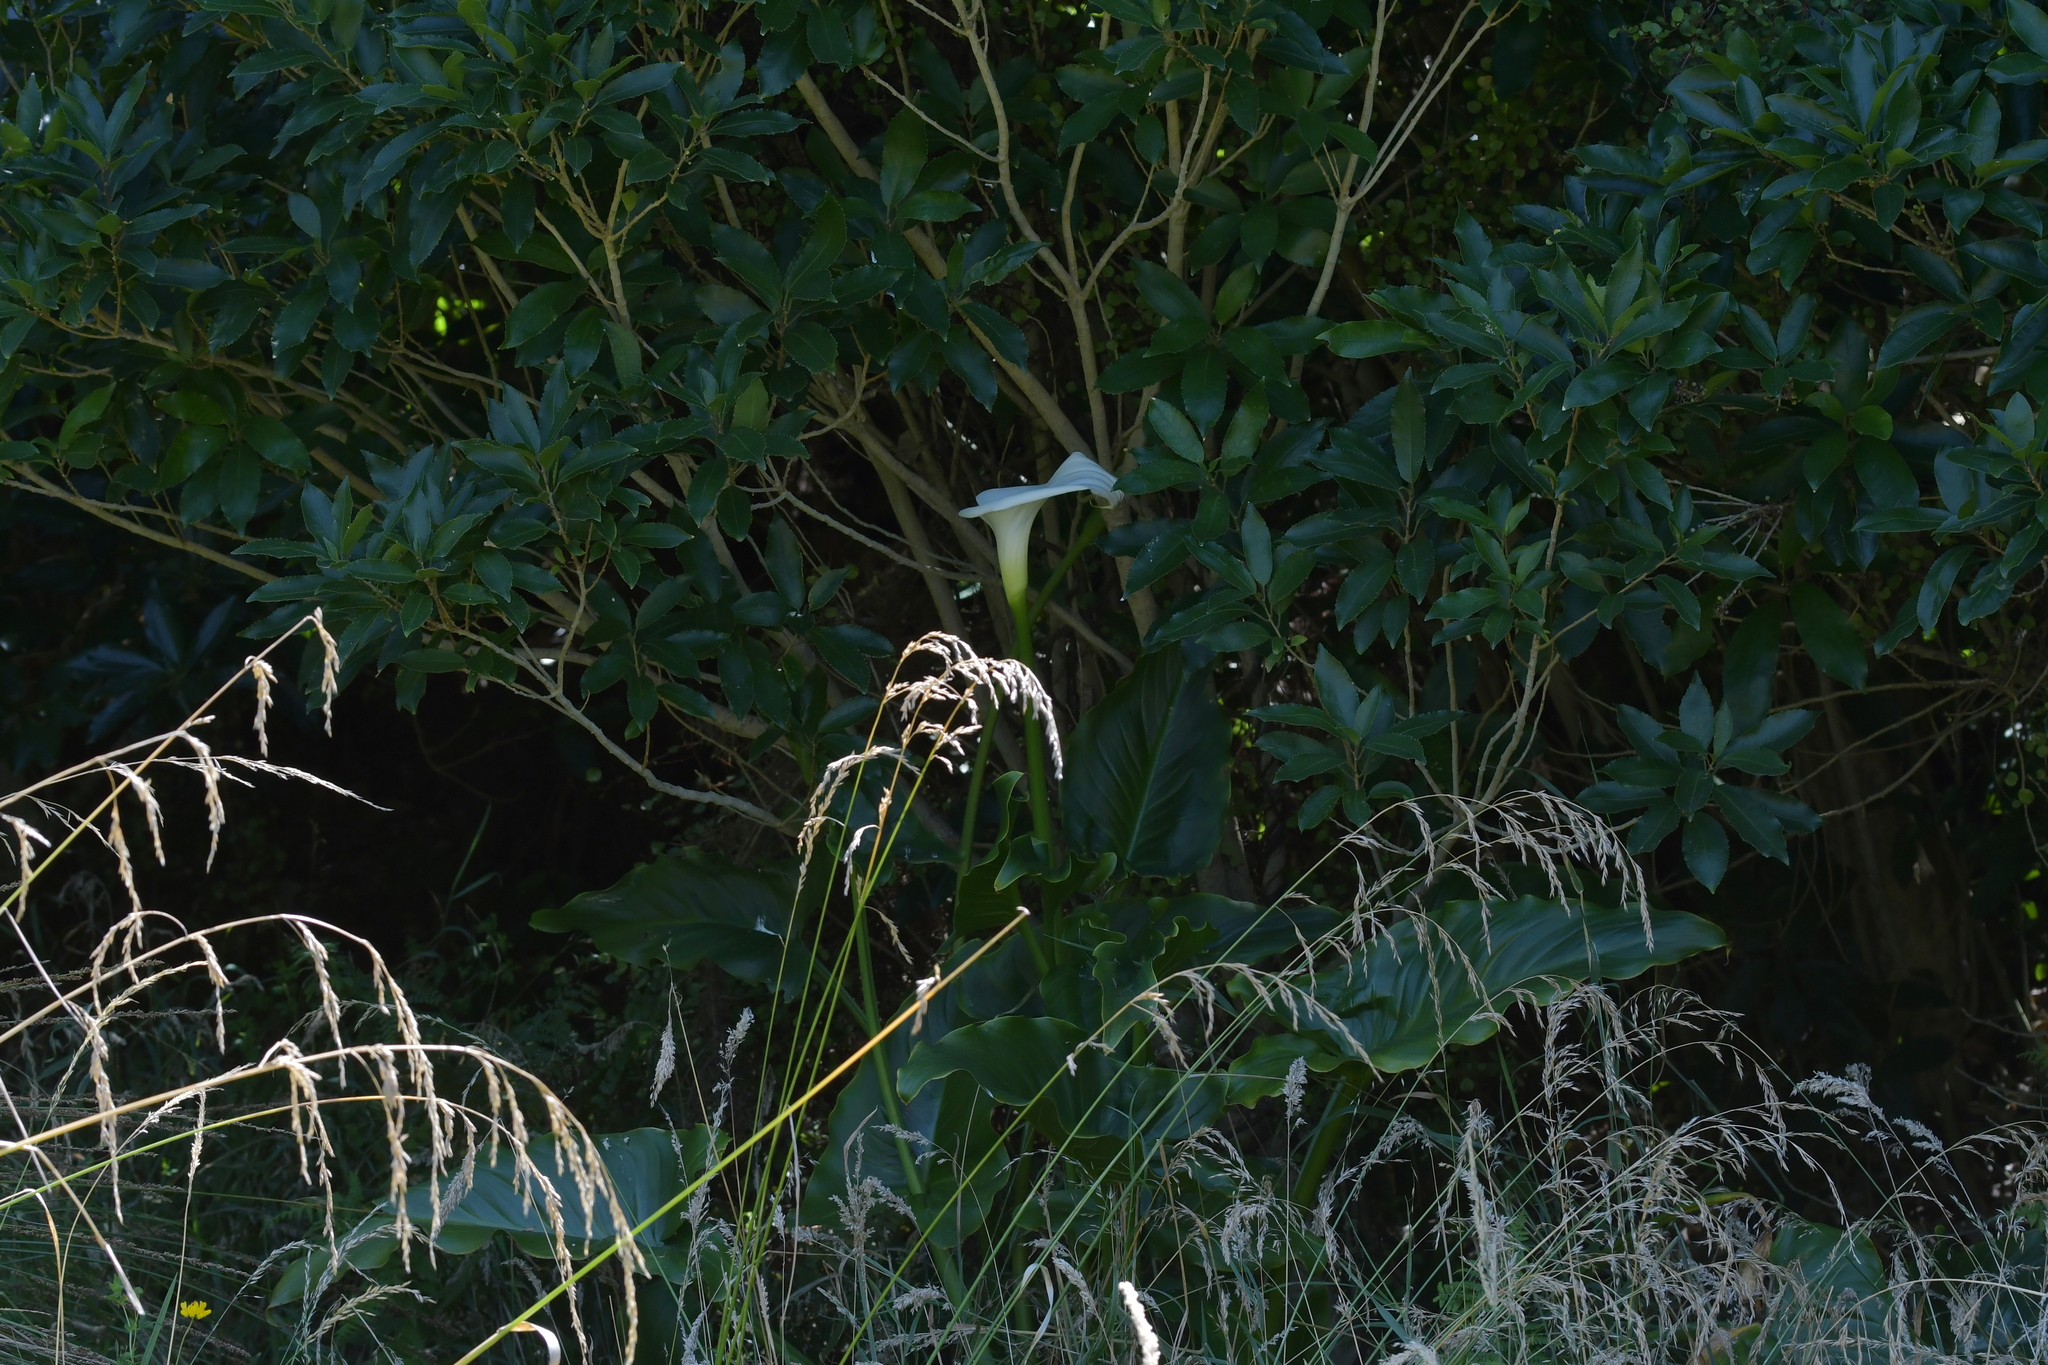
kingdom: Plantae
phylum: Tracheophyta
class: Liliopsida
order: Alismatales
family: Araceae
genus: Zantedeschia
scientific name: Zantedeschia aethiopica
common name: Altar-lily
